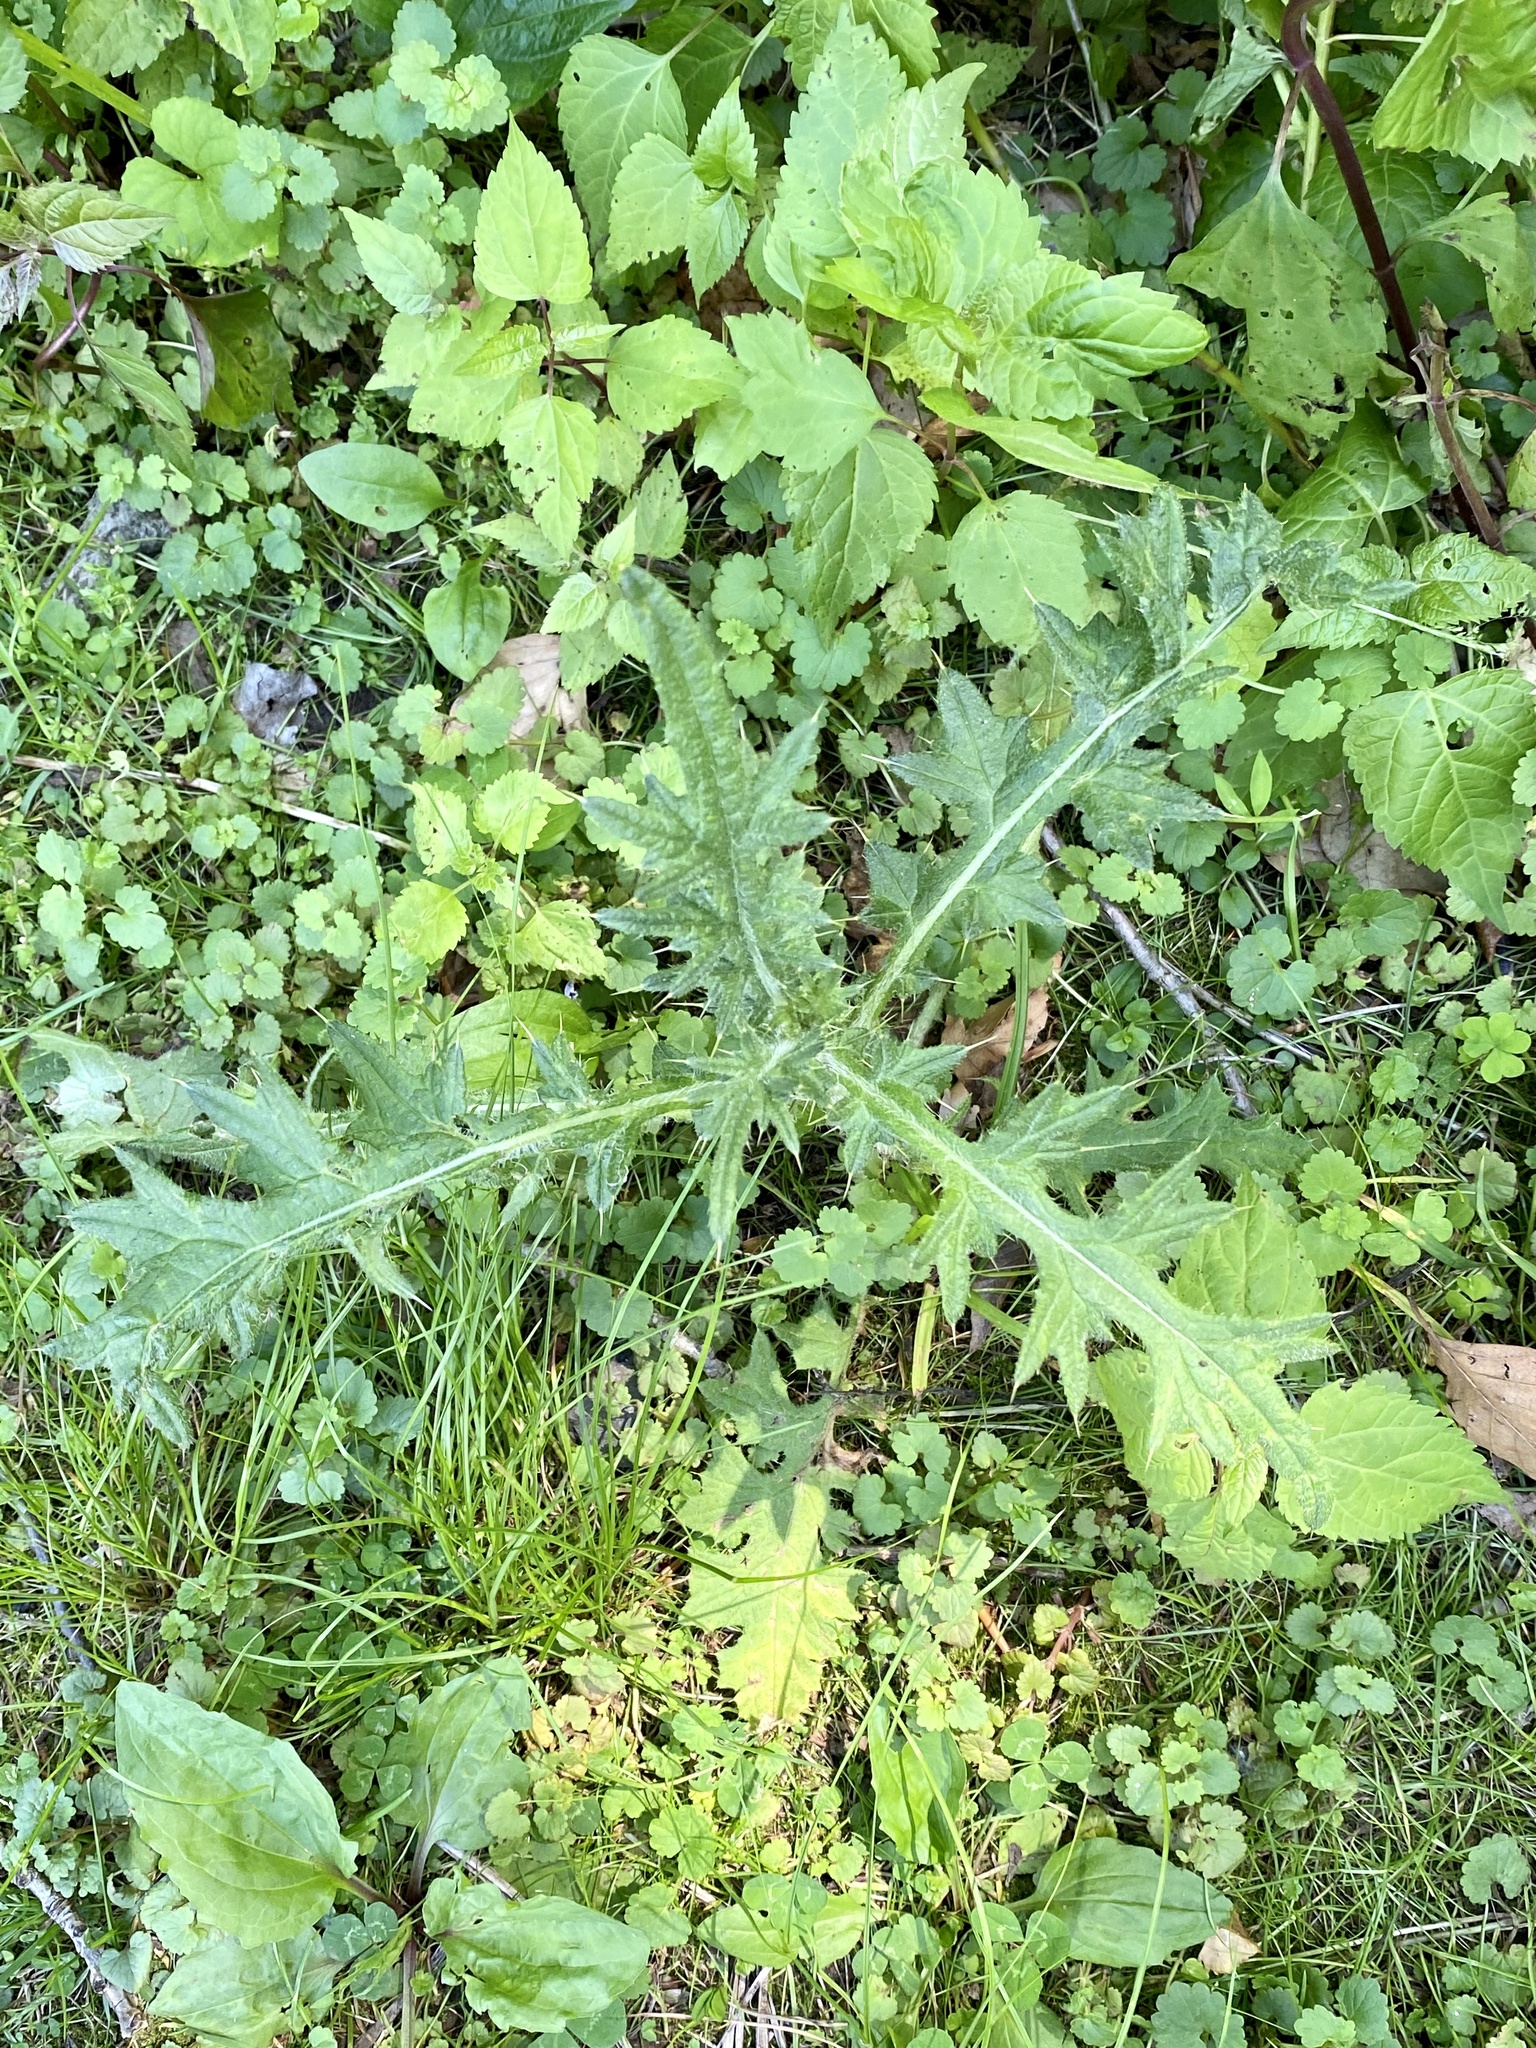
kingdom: Plantae
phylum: Tracheophyta
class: Magnoliopsida
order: Asterales
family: Asteraceae
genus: Cirsium
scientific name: Cirsium vulgare
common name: Bull thistle
